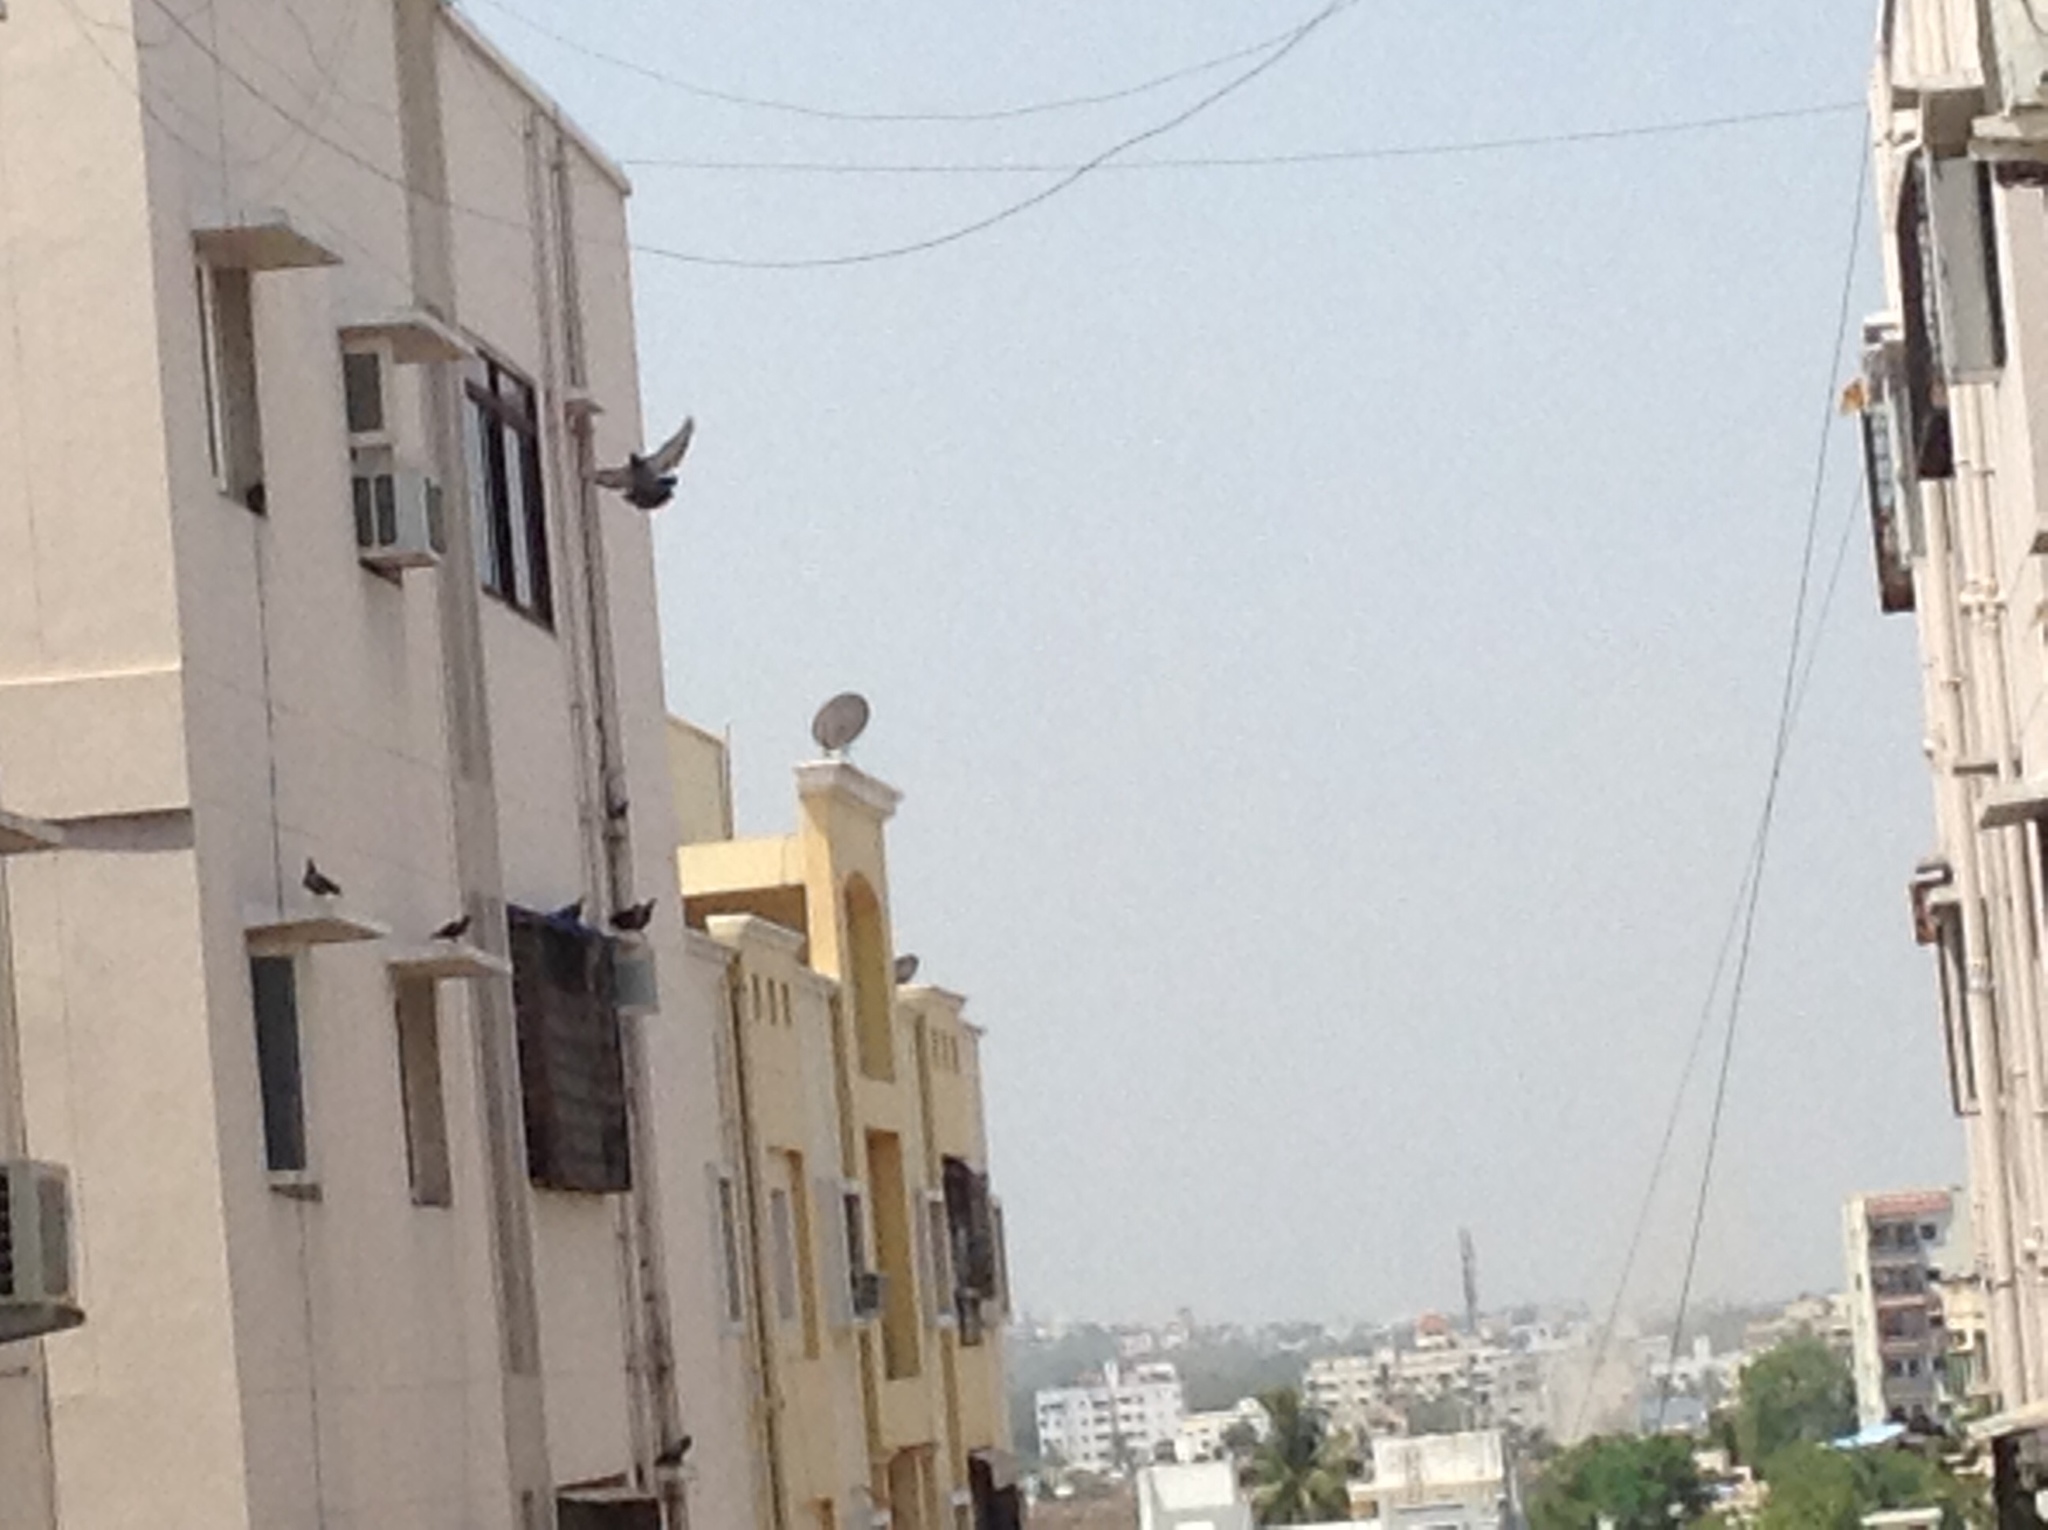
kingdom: Animalia
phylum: Chordata
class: Aves
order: Columbiformes
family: Columbidae
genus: Columba
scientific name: Columba livia
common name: Rock pigeon
